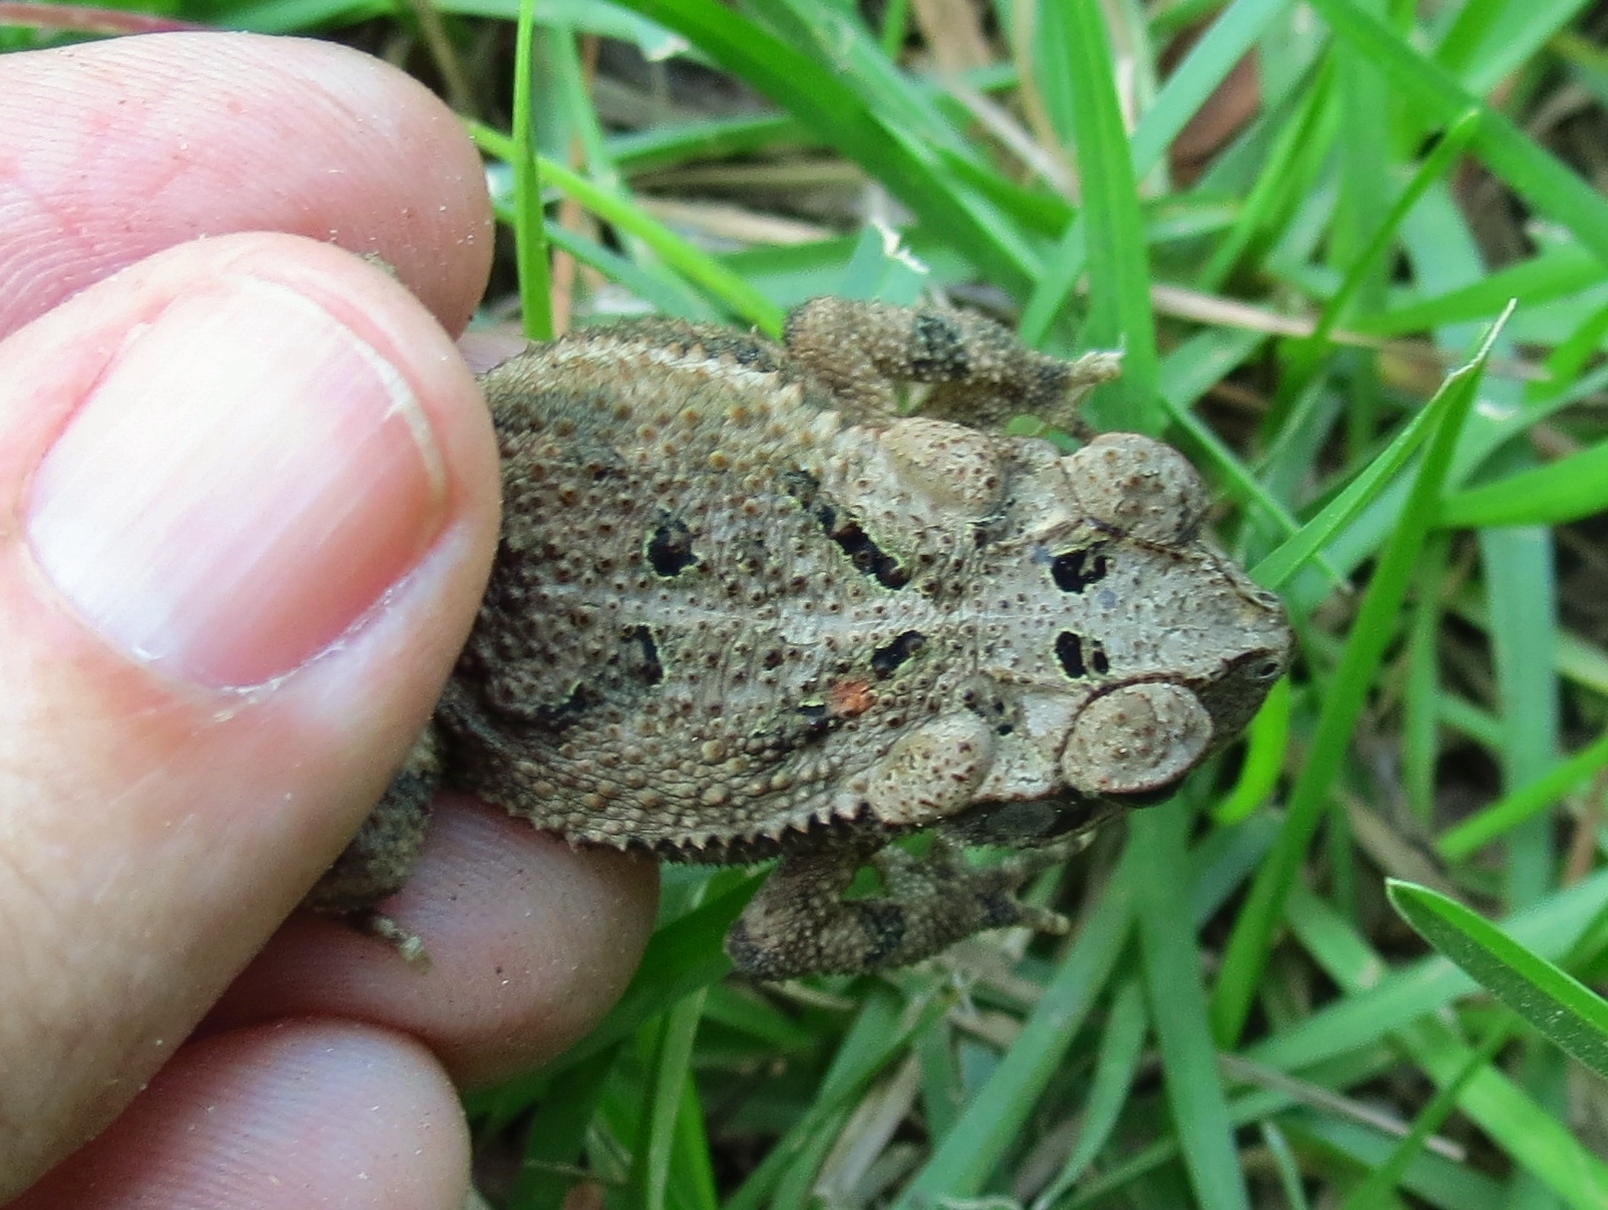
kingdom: Animalia
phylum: Chordata
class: Amphibia
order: Anura
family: Bufonidae
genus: Incilius
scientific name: Incilius nebulifer
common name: Gulf coast toad
